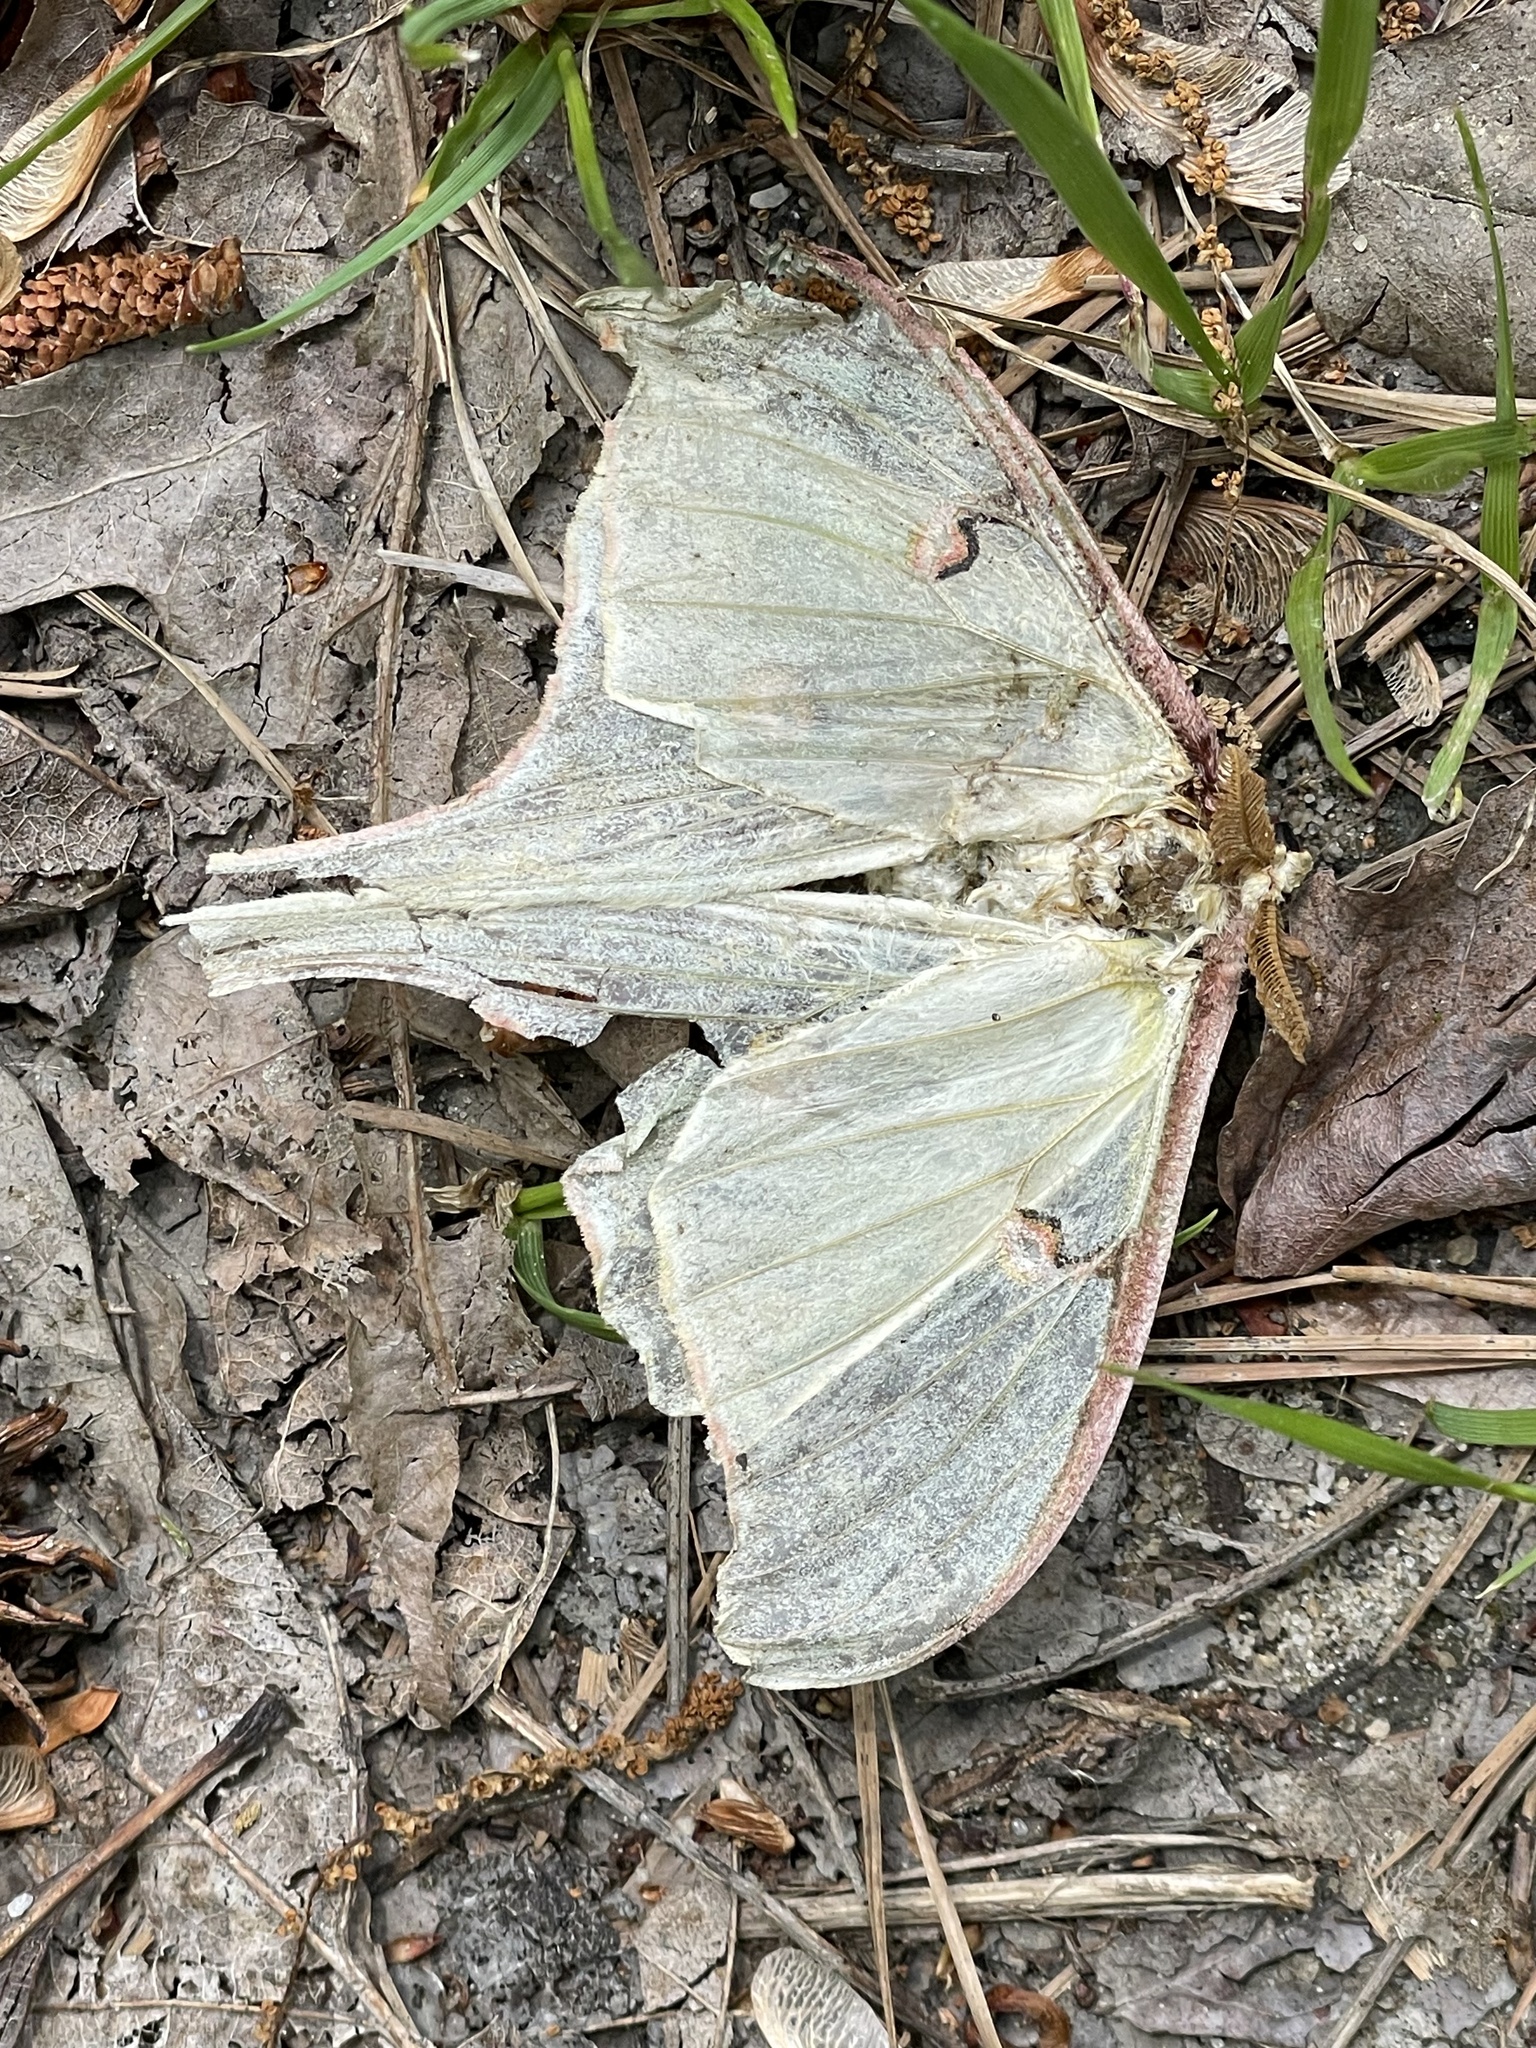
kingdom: Animalia
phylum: Arthropoda
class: Insecta
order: Lepidoptera
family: Saturniidae
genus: Actias
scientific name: Actias luna
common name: Luna moth
